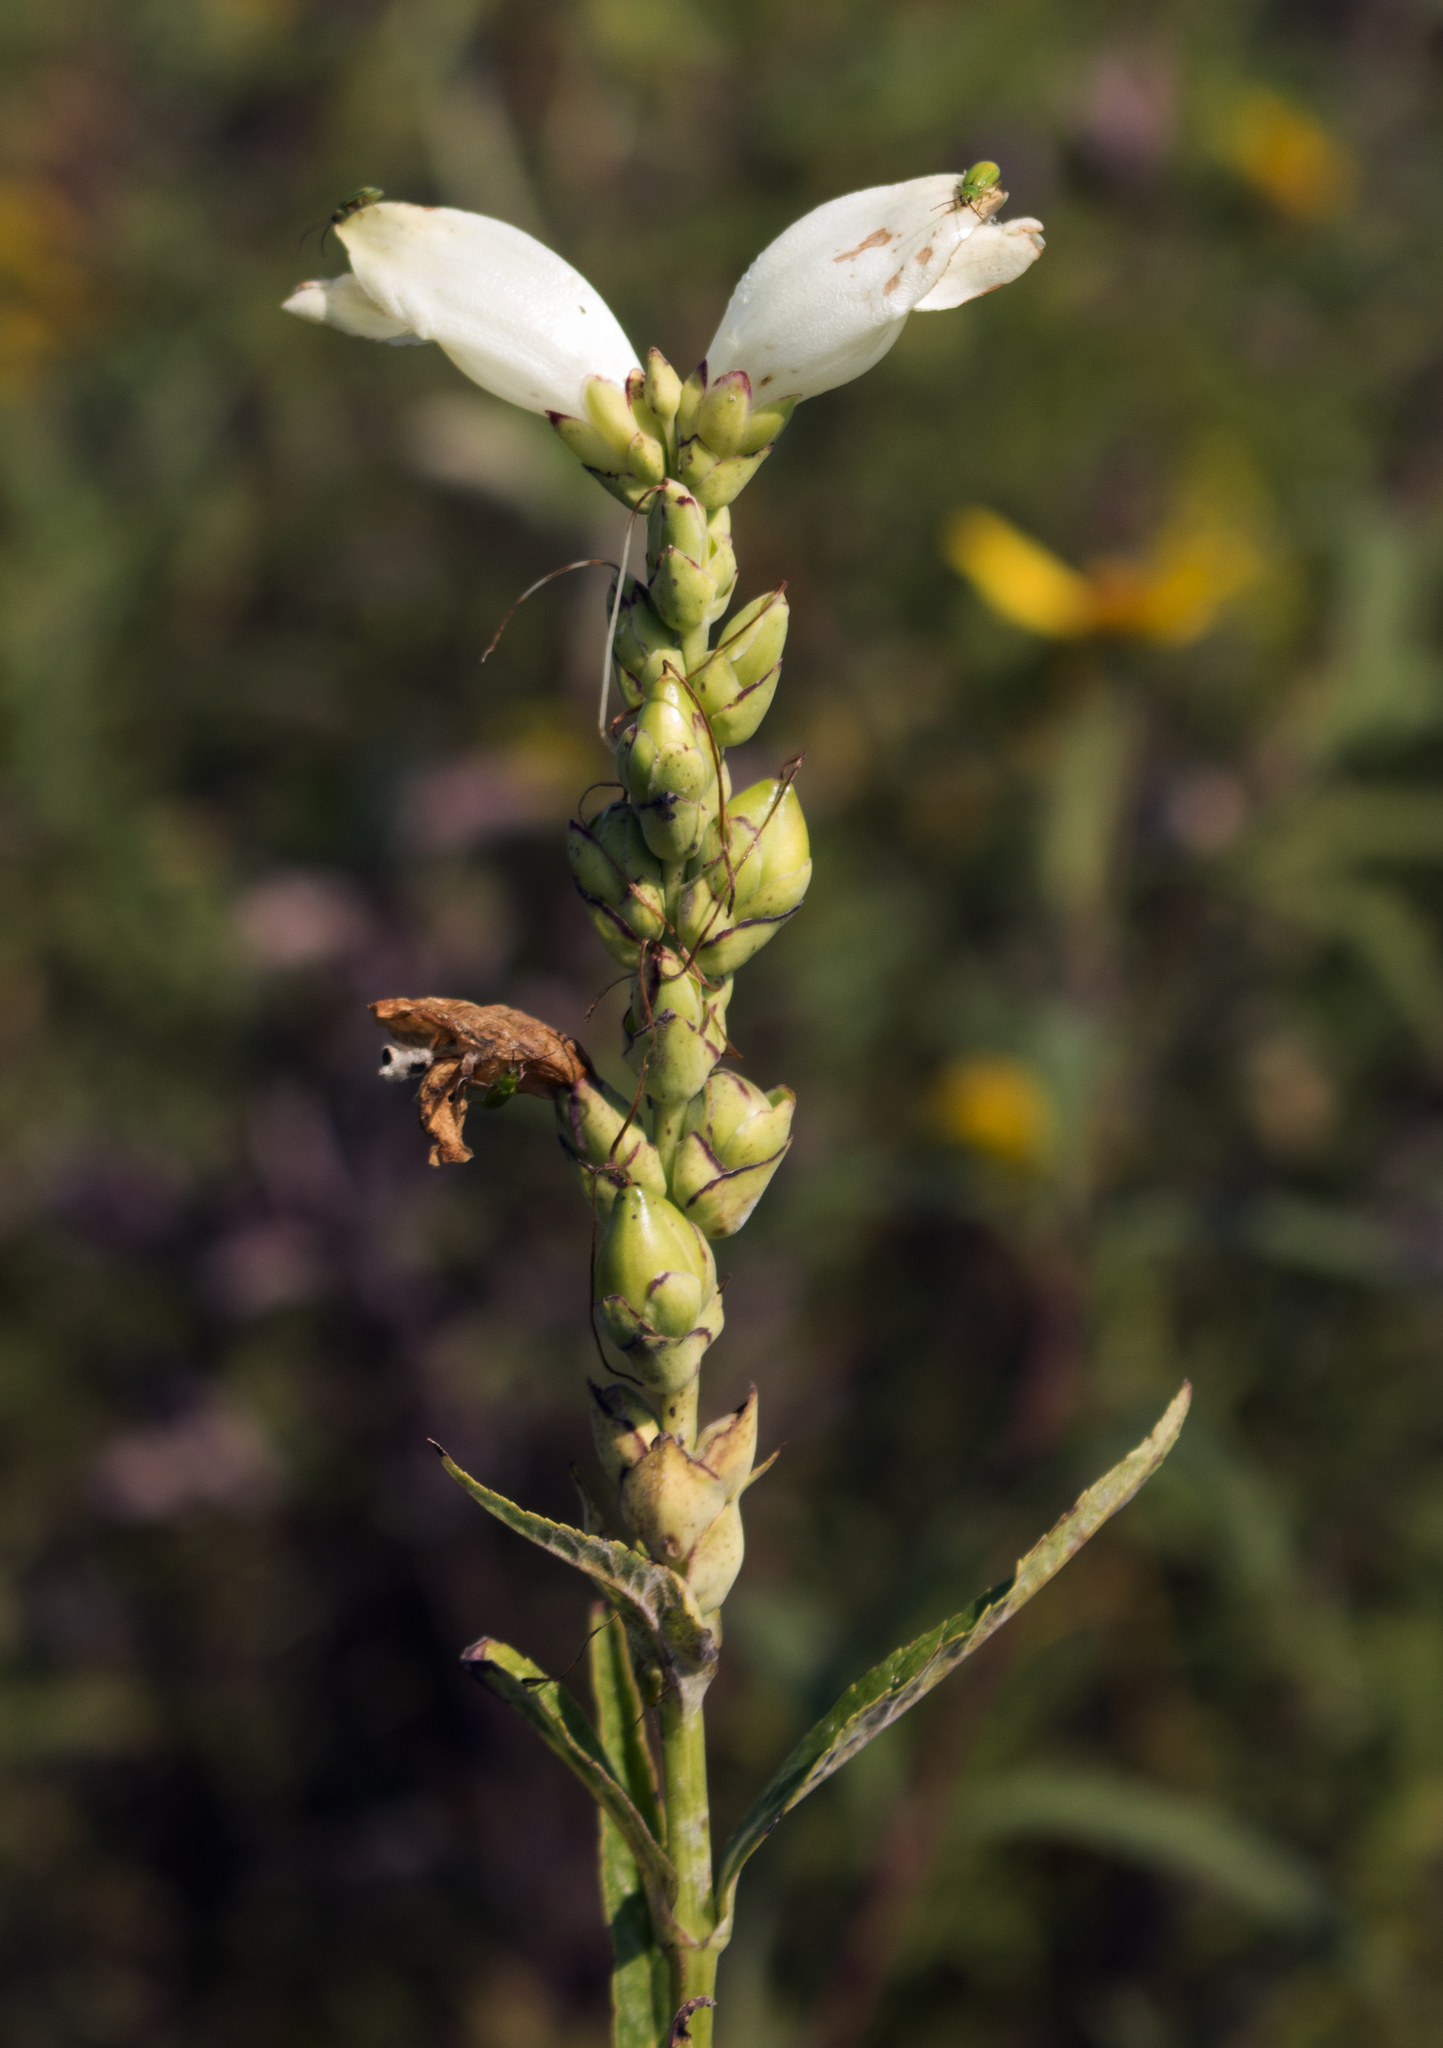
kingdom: Plantae
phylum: Tracheophyta
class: Magnoliopsida
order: Lamiales
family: Plantaginaceae
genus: Chelone
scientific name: Chelone glabra
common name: Snakehead
